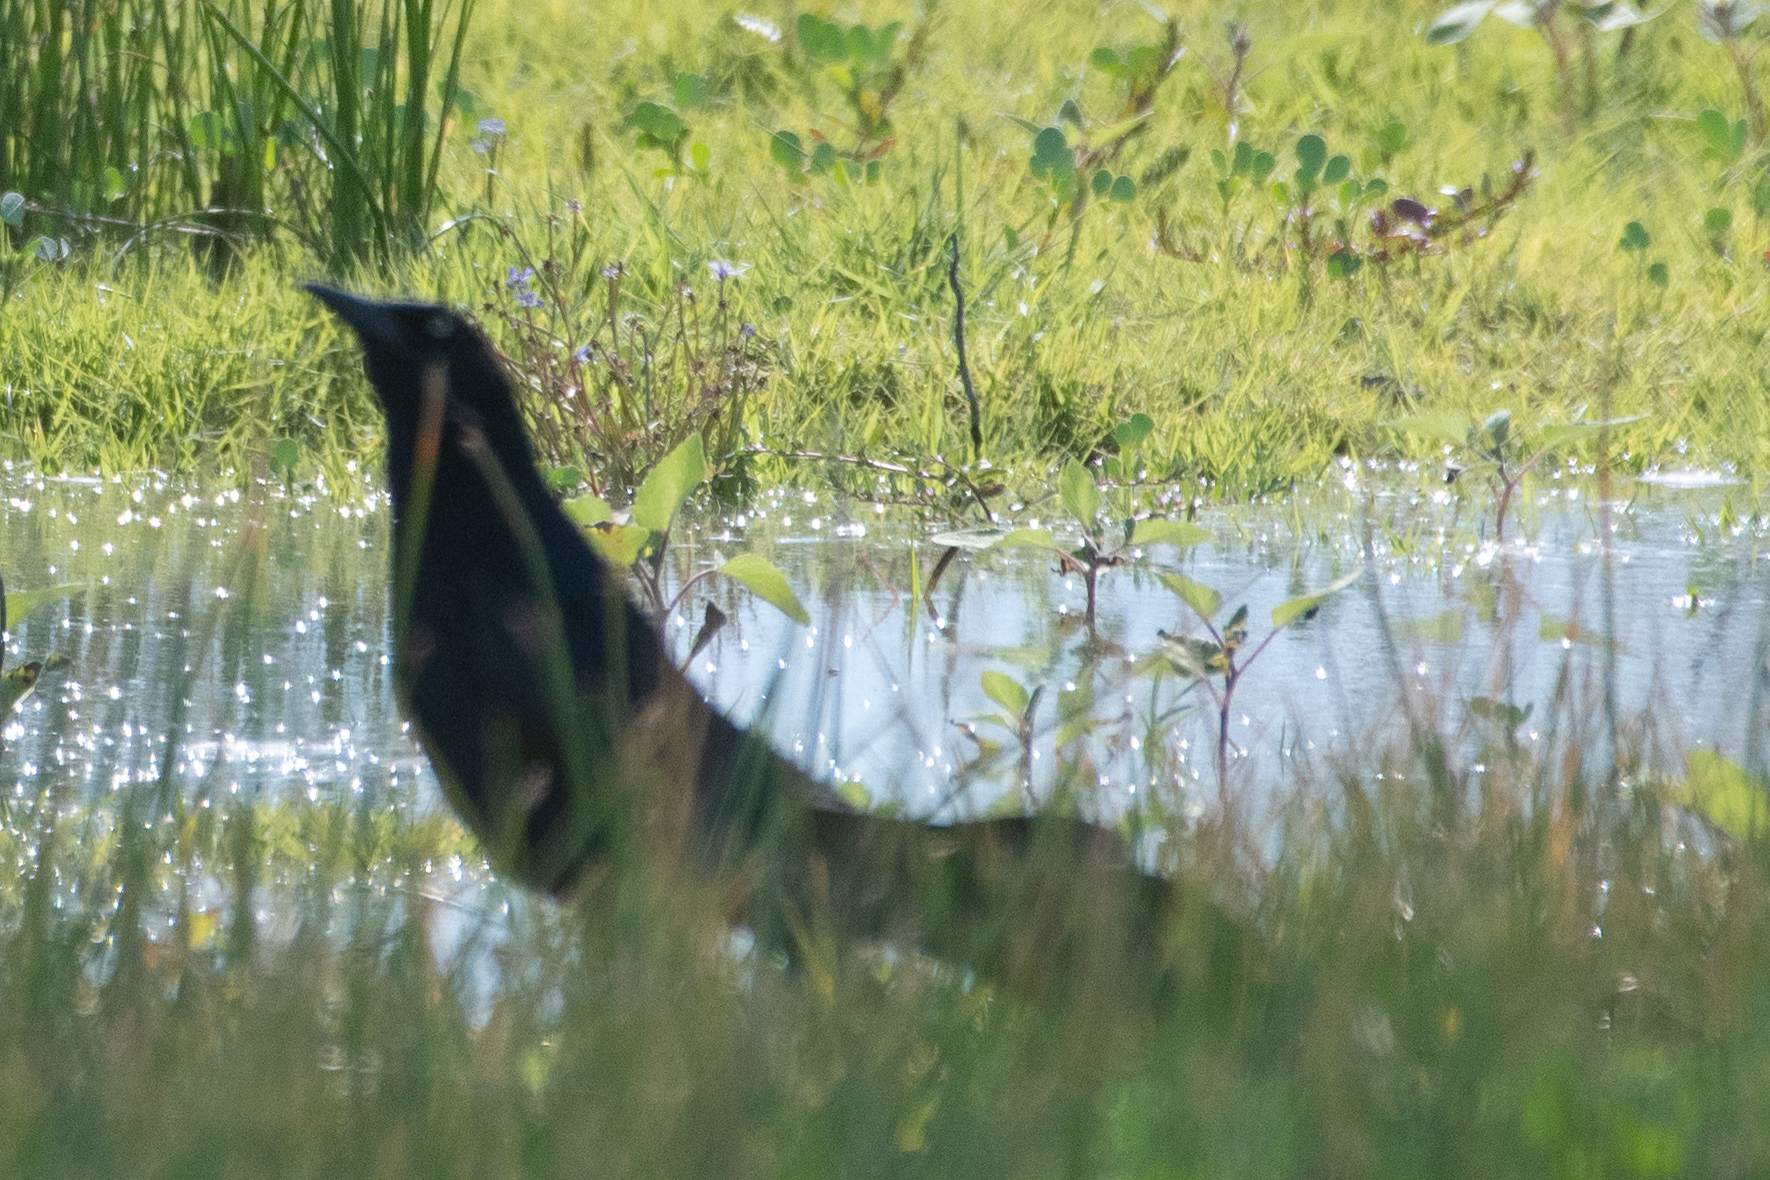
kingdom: Animalia
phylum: Chordata
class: Aves
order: Passeriformes
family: Icteridae
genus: Quiscalus
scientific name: Quiscalus mexicanus
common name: Great-tailed grackle
